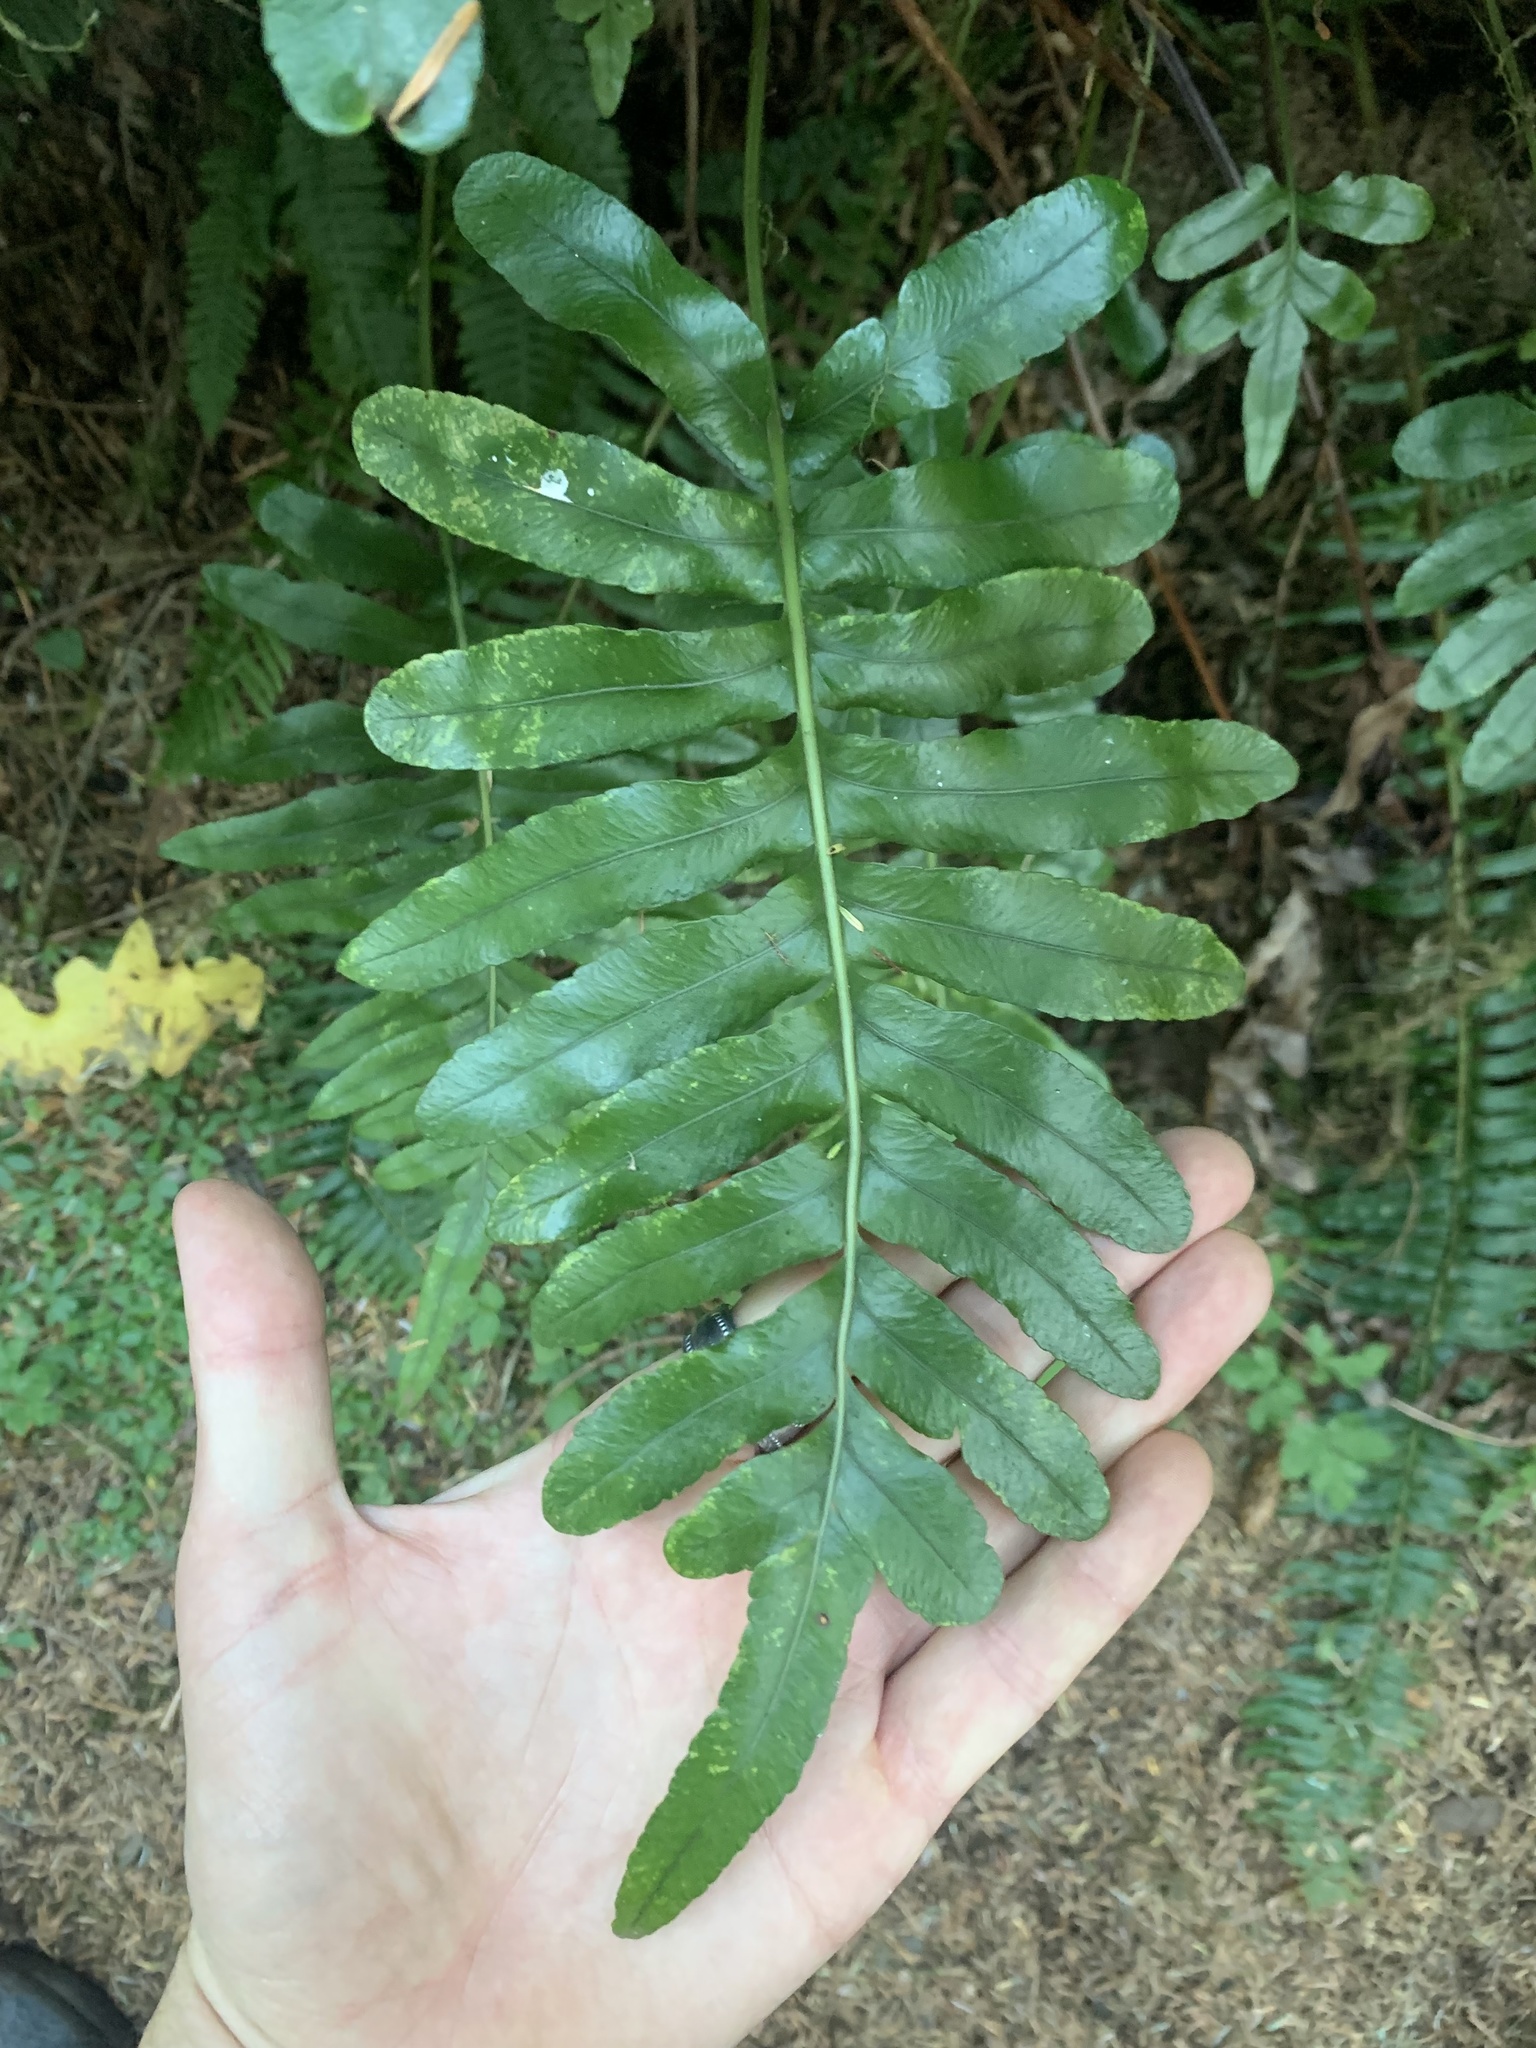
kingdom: Plantae
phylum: Tracheophyta
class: Polypodiopsida
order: Polypodiales
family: Polypodiaceae
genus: Polypodium
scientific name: Polypodium scouleri
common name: Scouler's polypody
